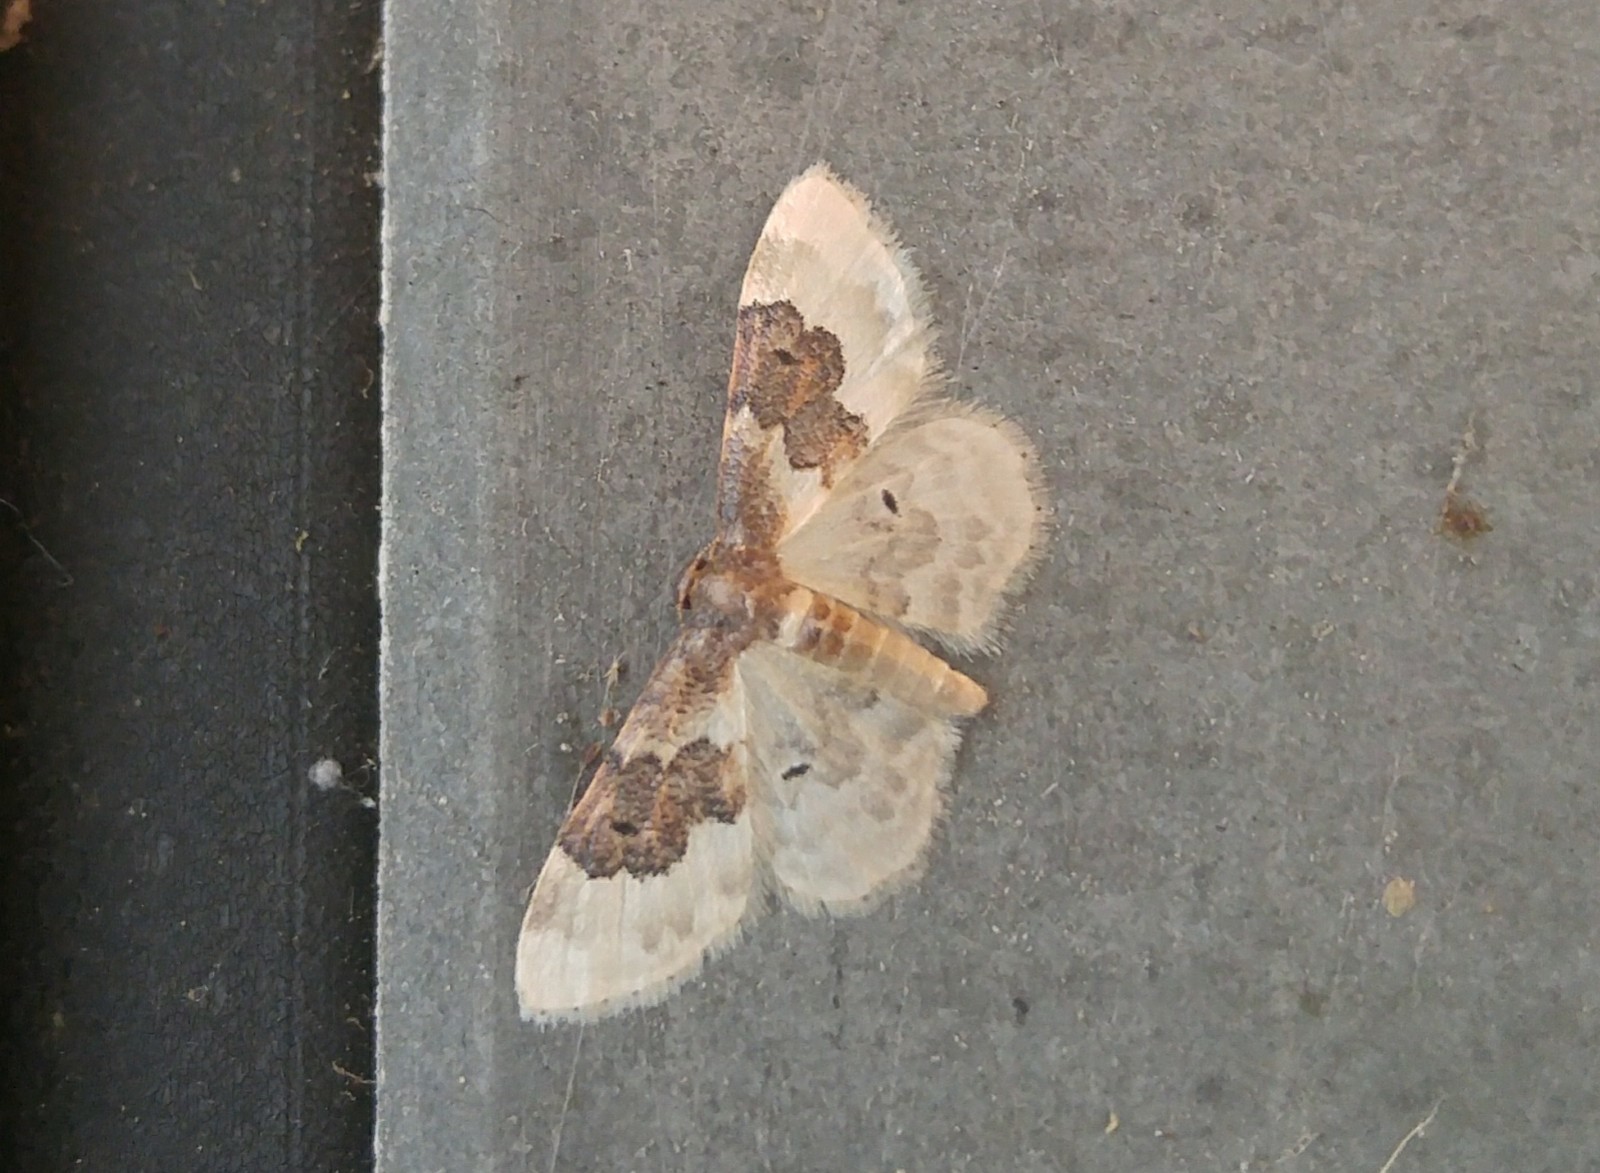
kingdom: Animalia
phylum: Arthropoda
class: Insecta
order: Lepidoptera
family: Geometridae
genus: Idaea
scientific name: Idaea rusticata
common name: Least carpet
